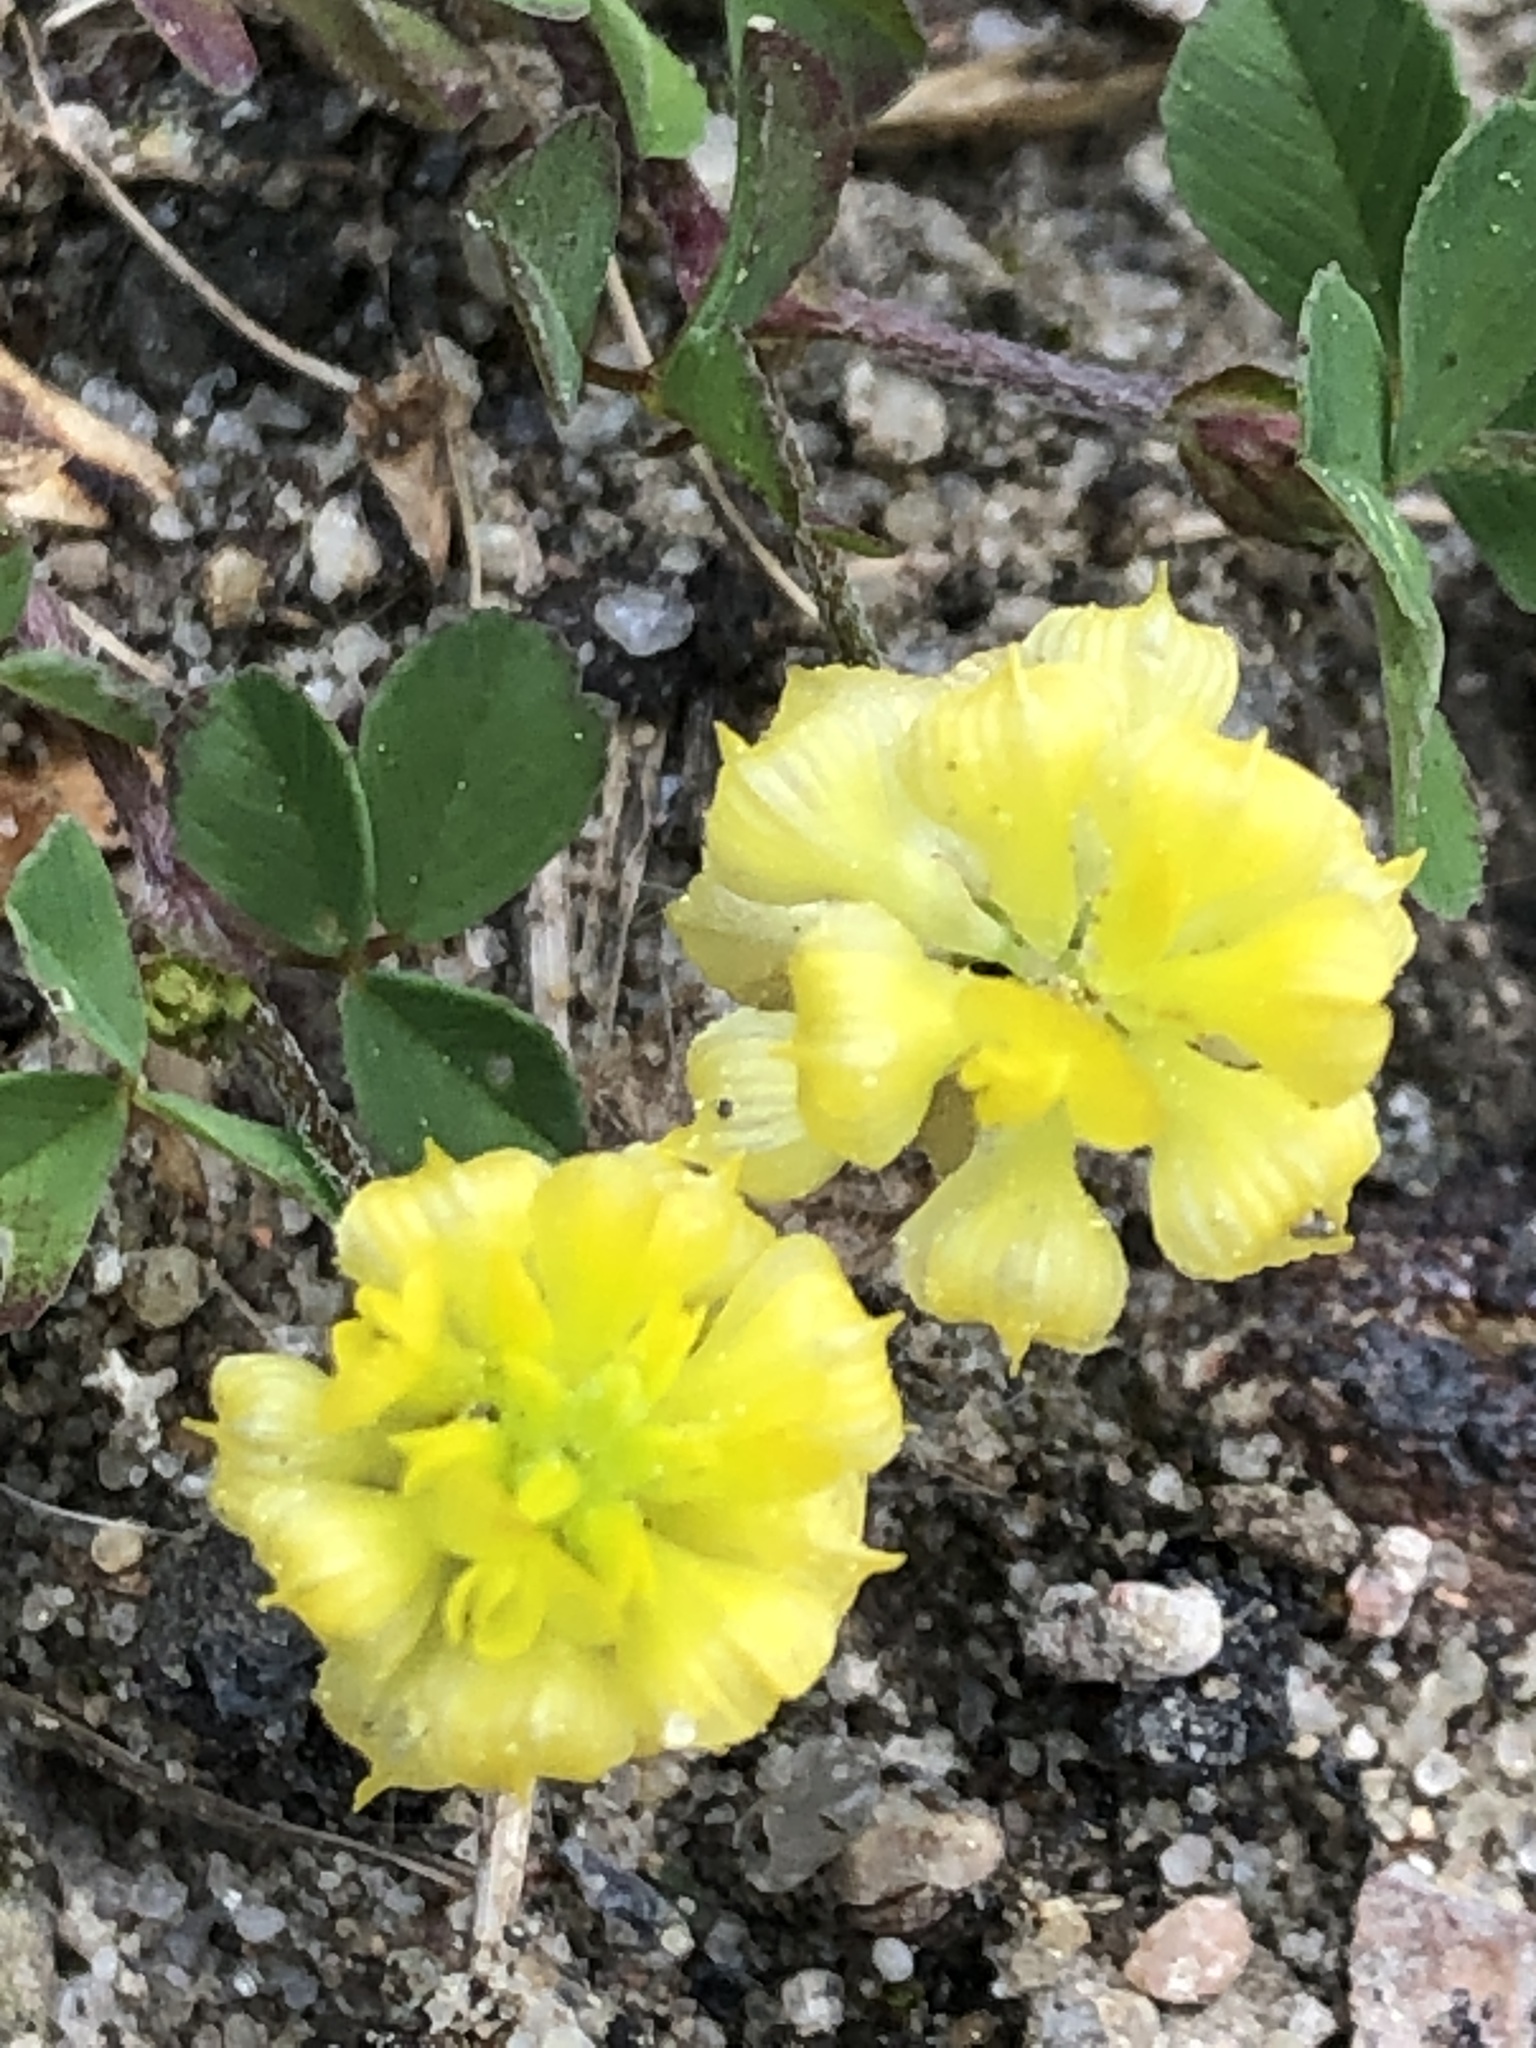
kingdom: Plantae
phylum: Tracheophyta
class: Magnoliopsida
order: Fabales
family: Fabaceae
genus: Trifolium
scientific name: Trifolium campestre
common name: Field clover
